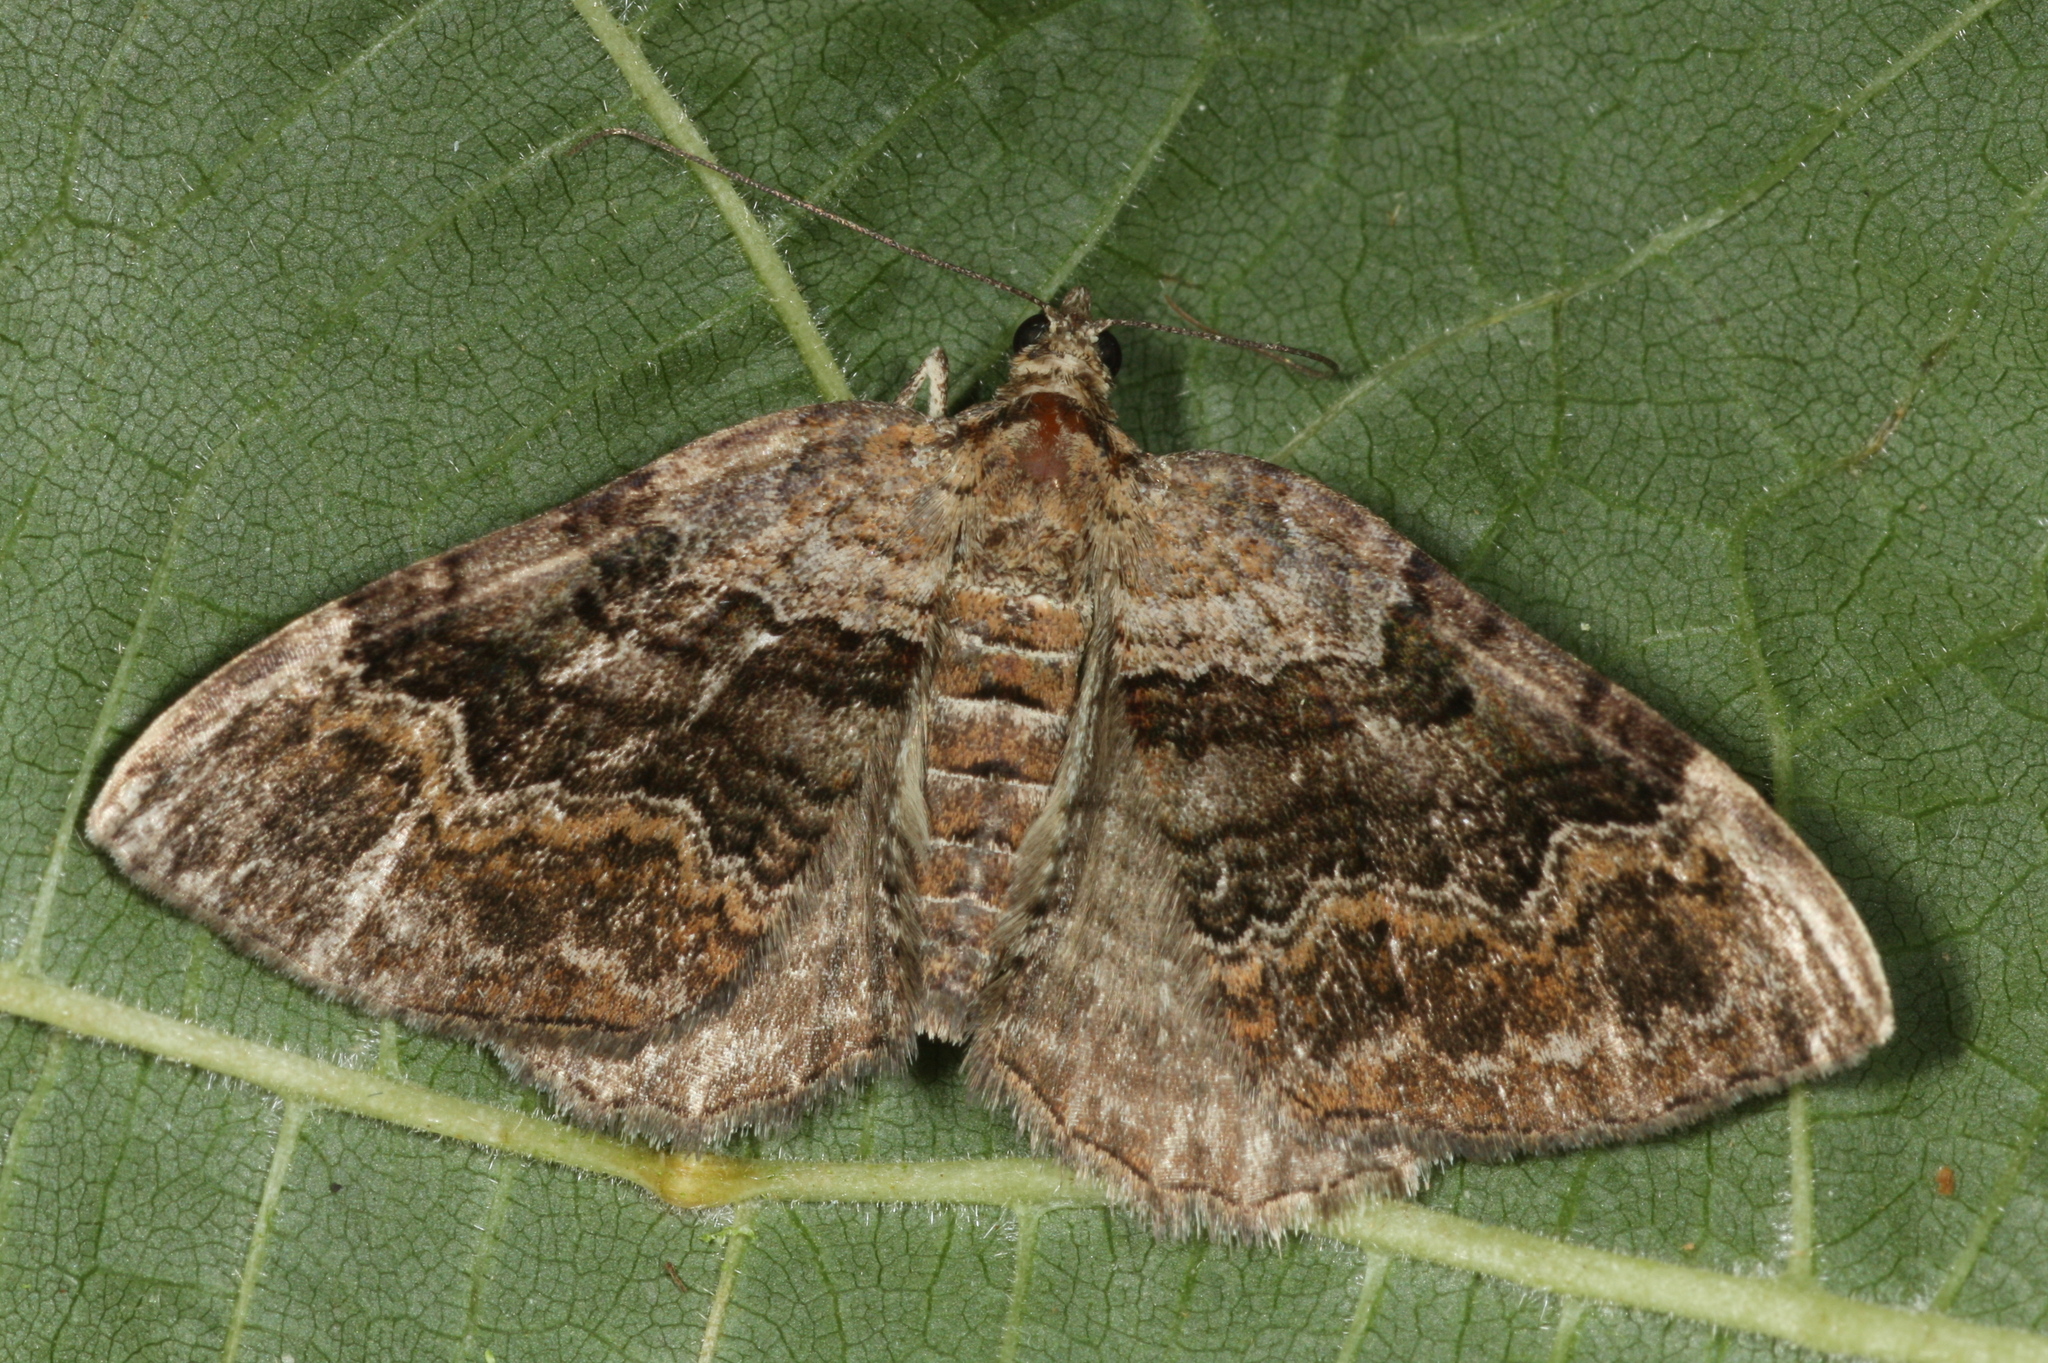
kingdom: Animalia
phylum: Arthropoda
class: Insecta
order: Lepidoptera
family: Geometridae
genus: Xanthorhoe
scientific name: Xanthorhoe quadrifasiata
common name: Large twin-spot carpet
